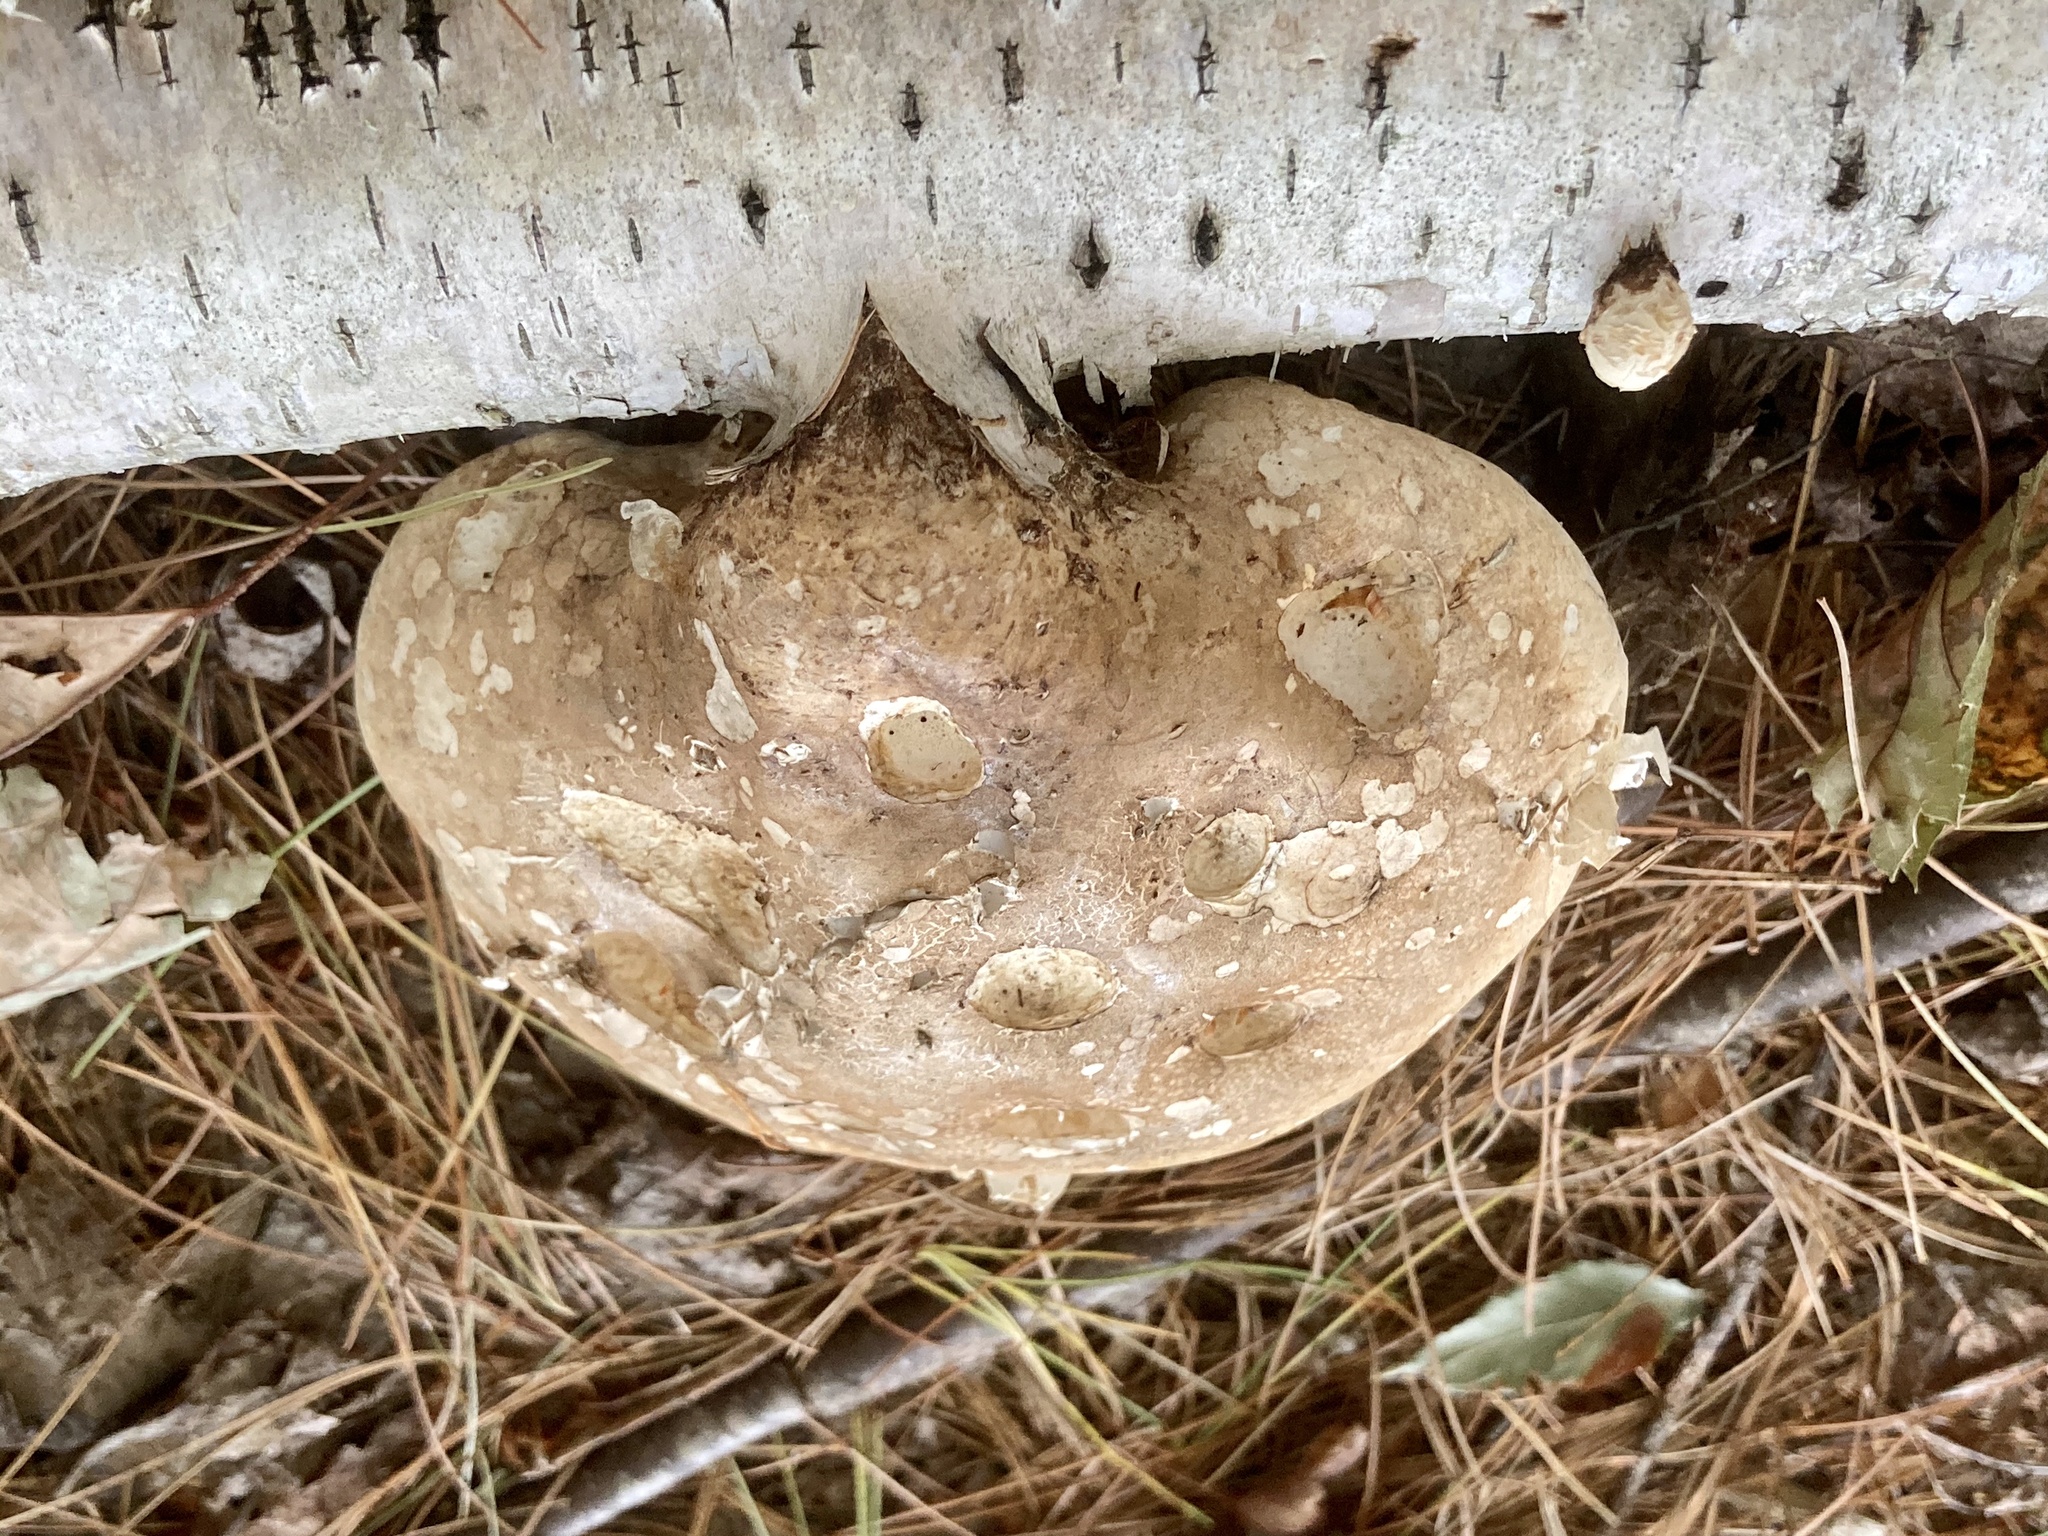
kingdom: Fungi
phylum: Basidiomycota
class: Agaricomycetes
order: Polyporales
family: Fomitopsidaceae
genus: Fomitopsis
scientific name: Fomitopsis betulina
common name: Birch polypore
